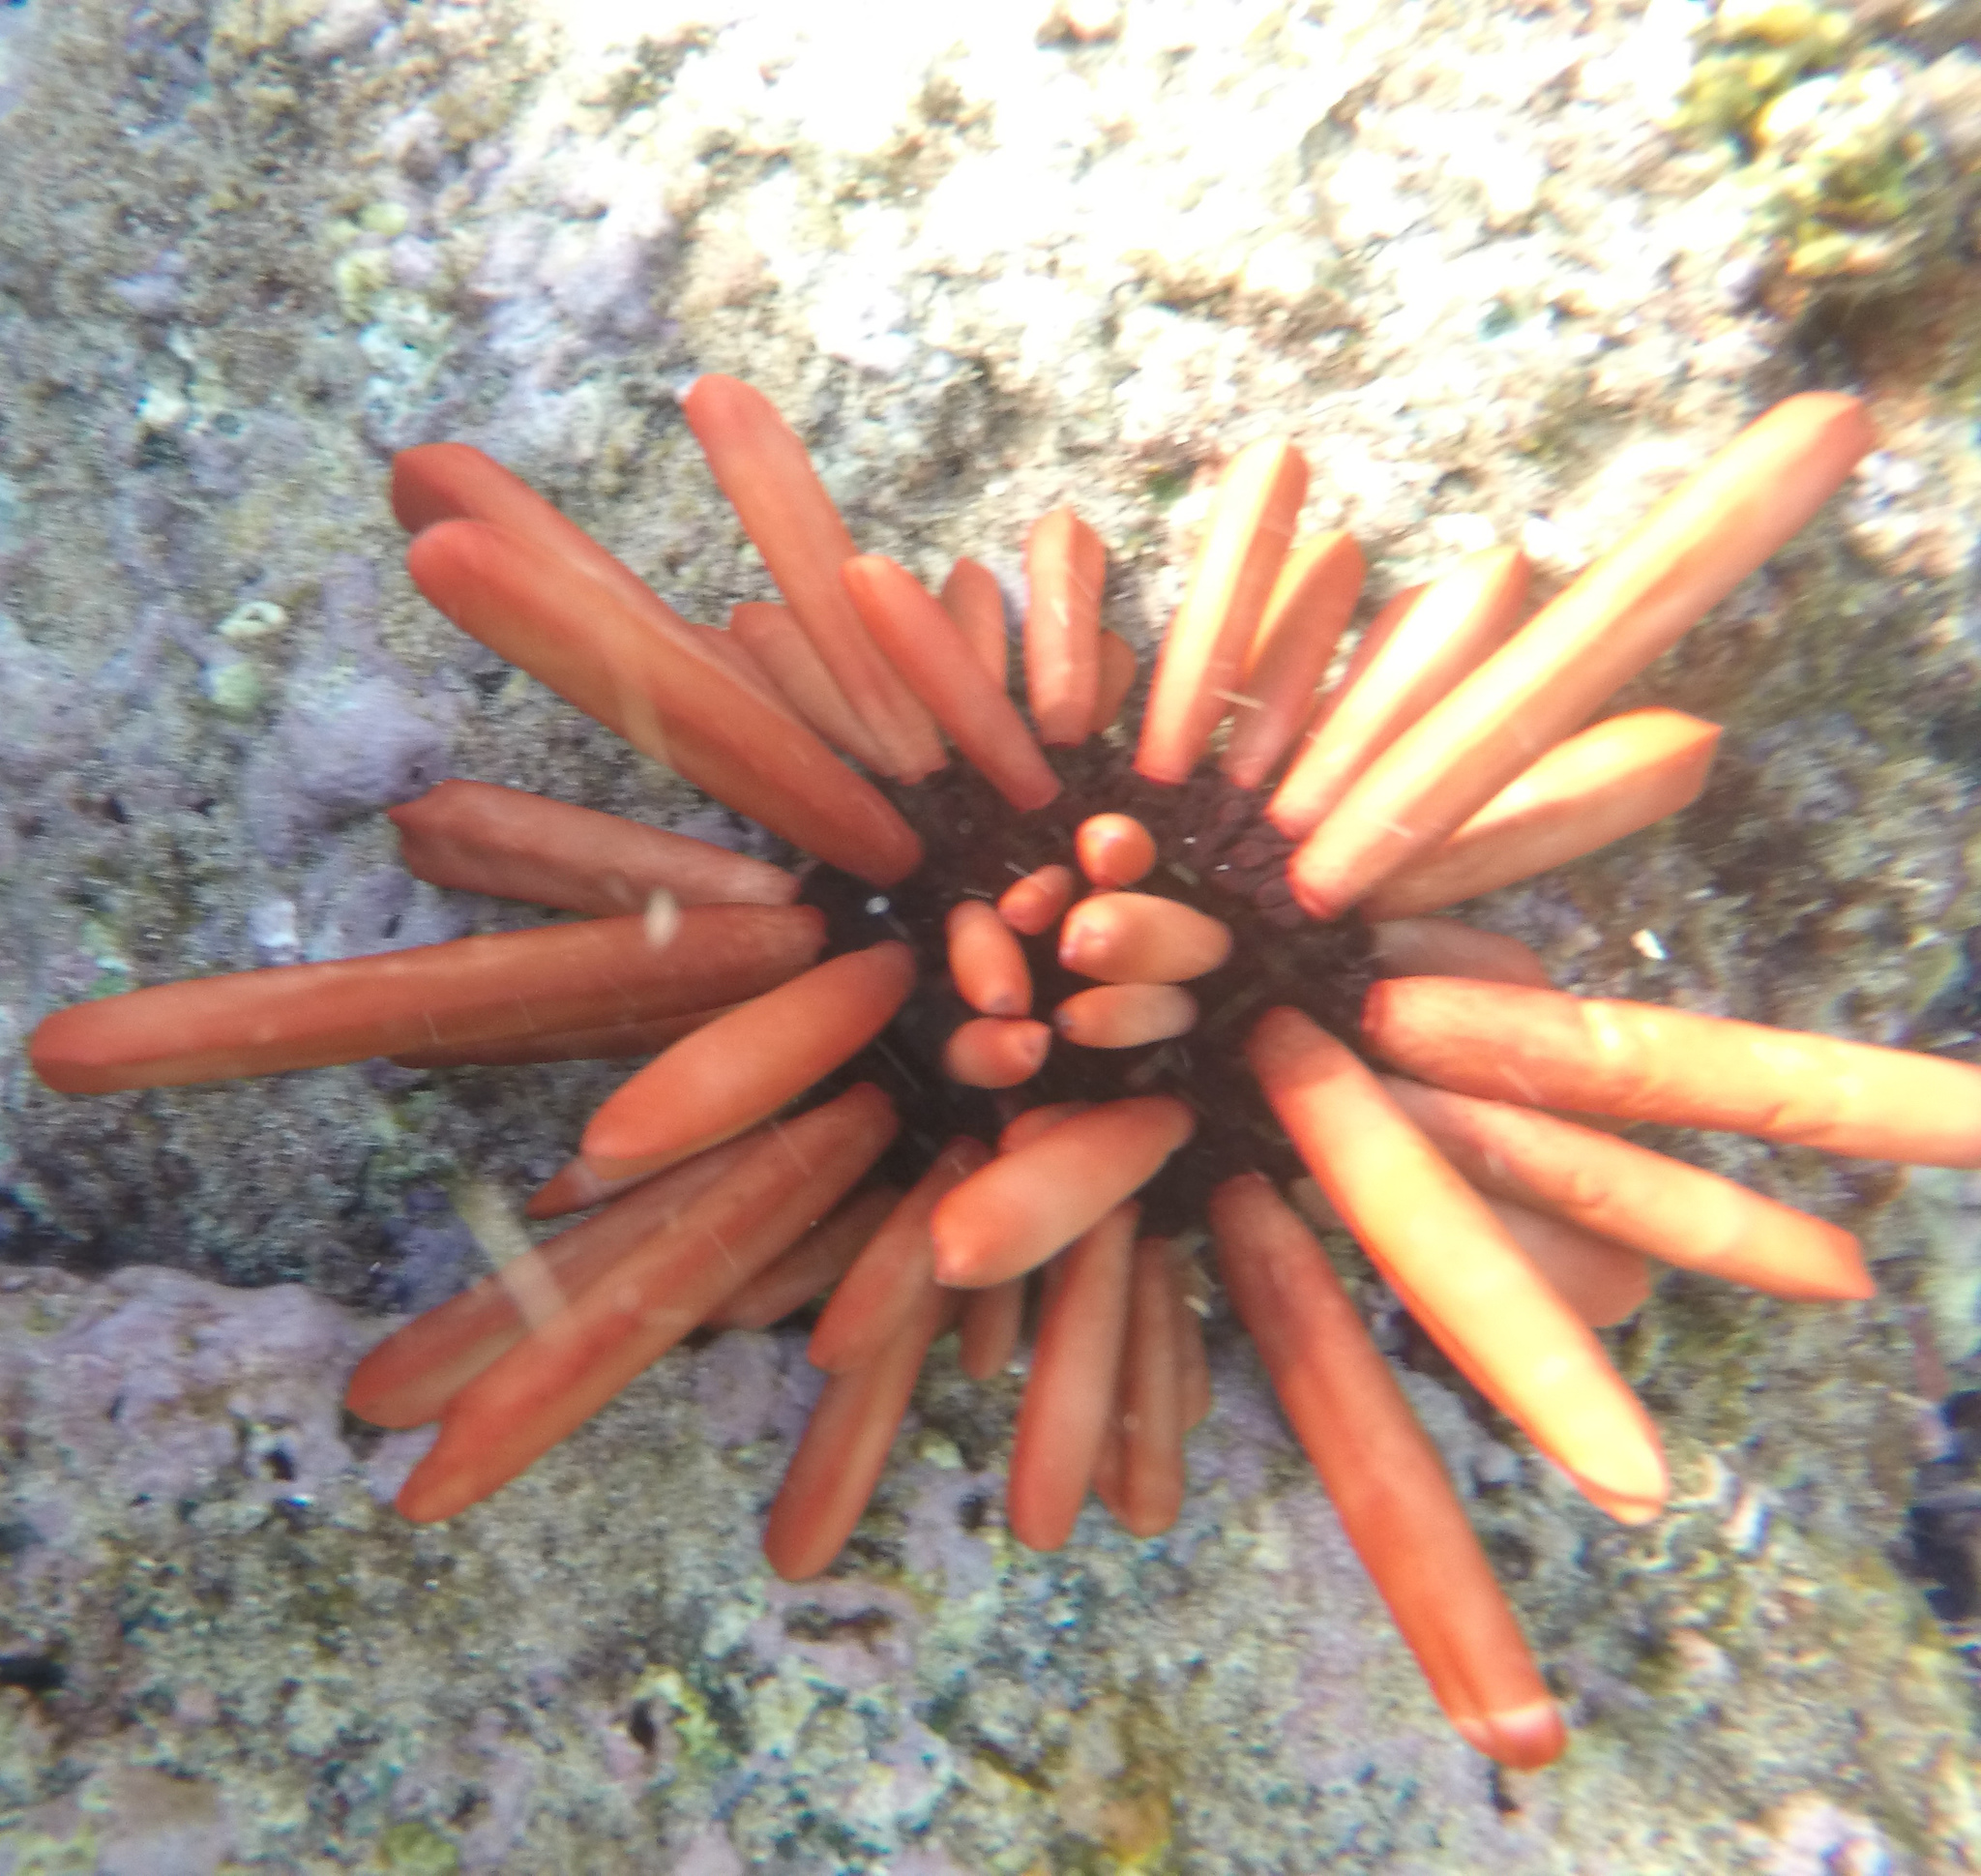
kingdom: Animalia
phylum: Echinodermata
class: Echinoidea
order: Camarodonta
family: Echinometridae
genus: Heterocentrotus
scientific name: Heterocentrotus mamillatus
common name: Slate pencil urchin
